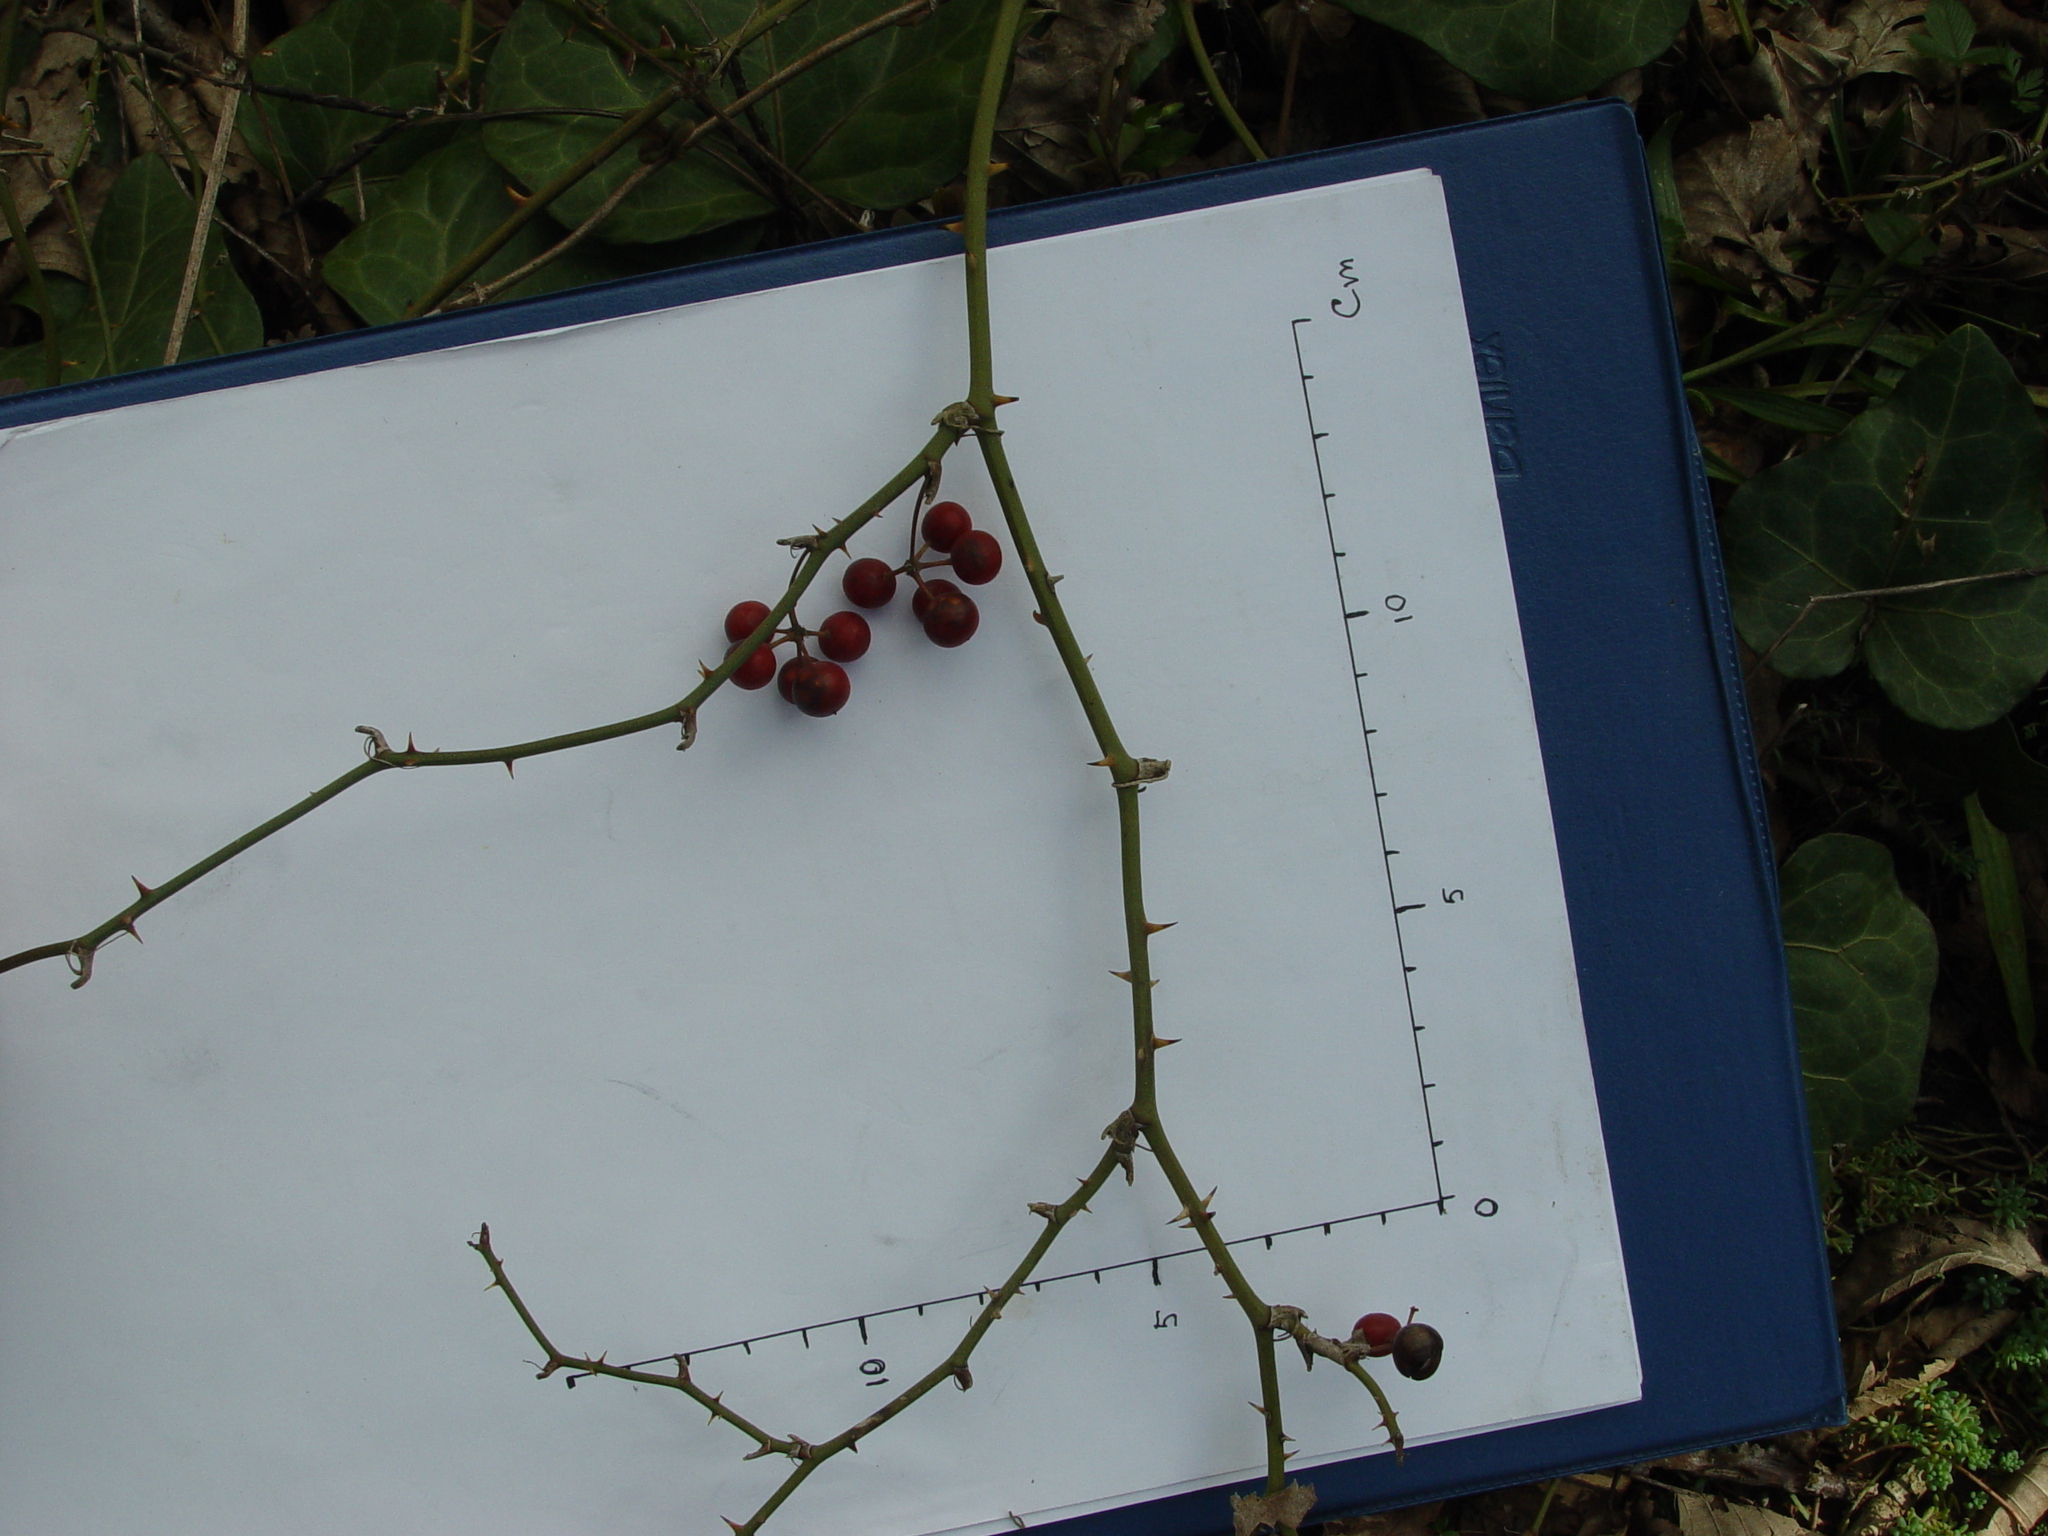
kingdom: Plantae
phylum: Tracheophyta
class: Liliopsida
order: Liliales
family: Smilacaceae
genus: Smilax
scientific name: Smilax excelsa
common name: Larger smilax
